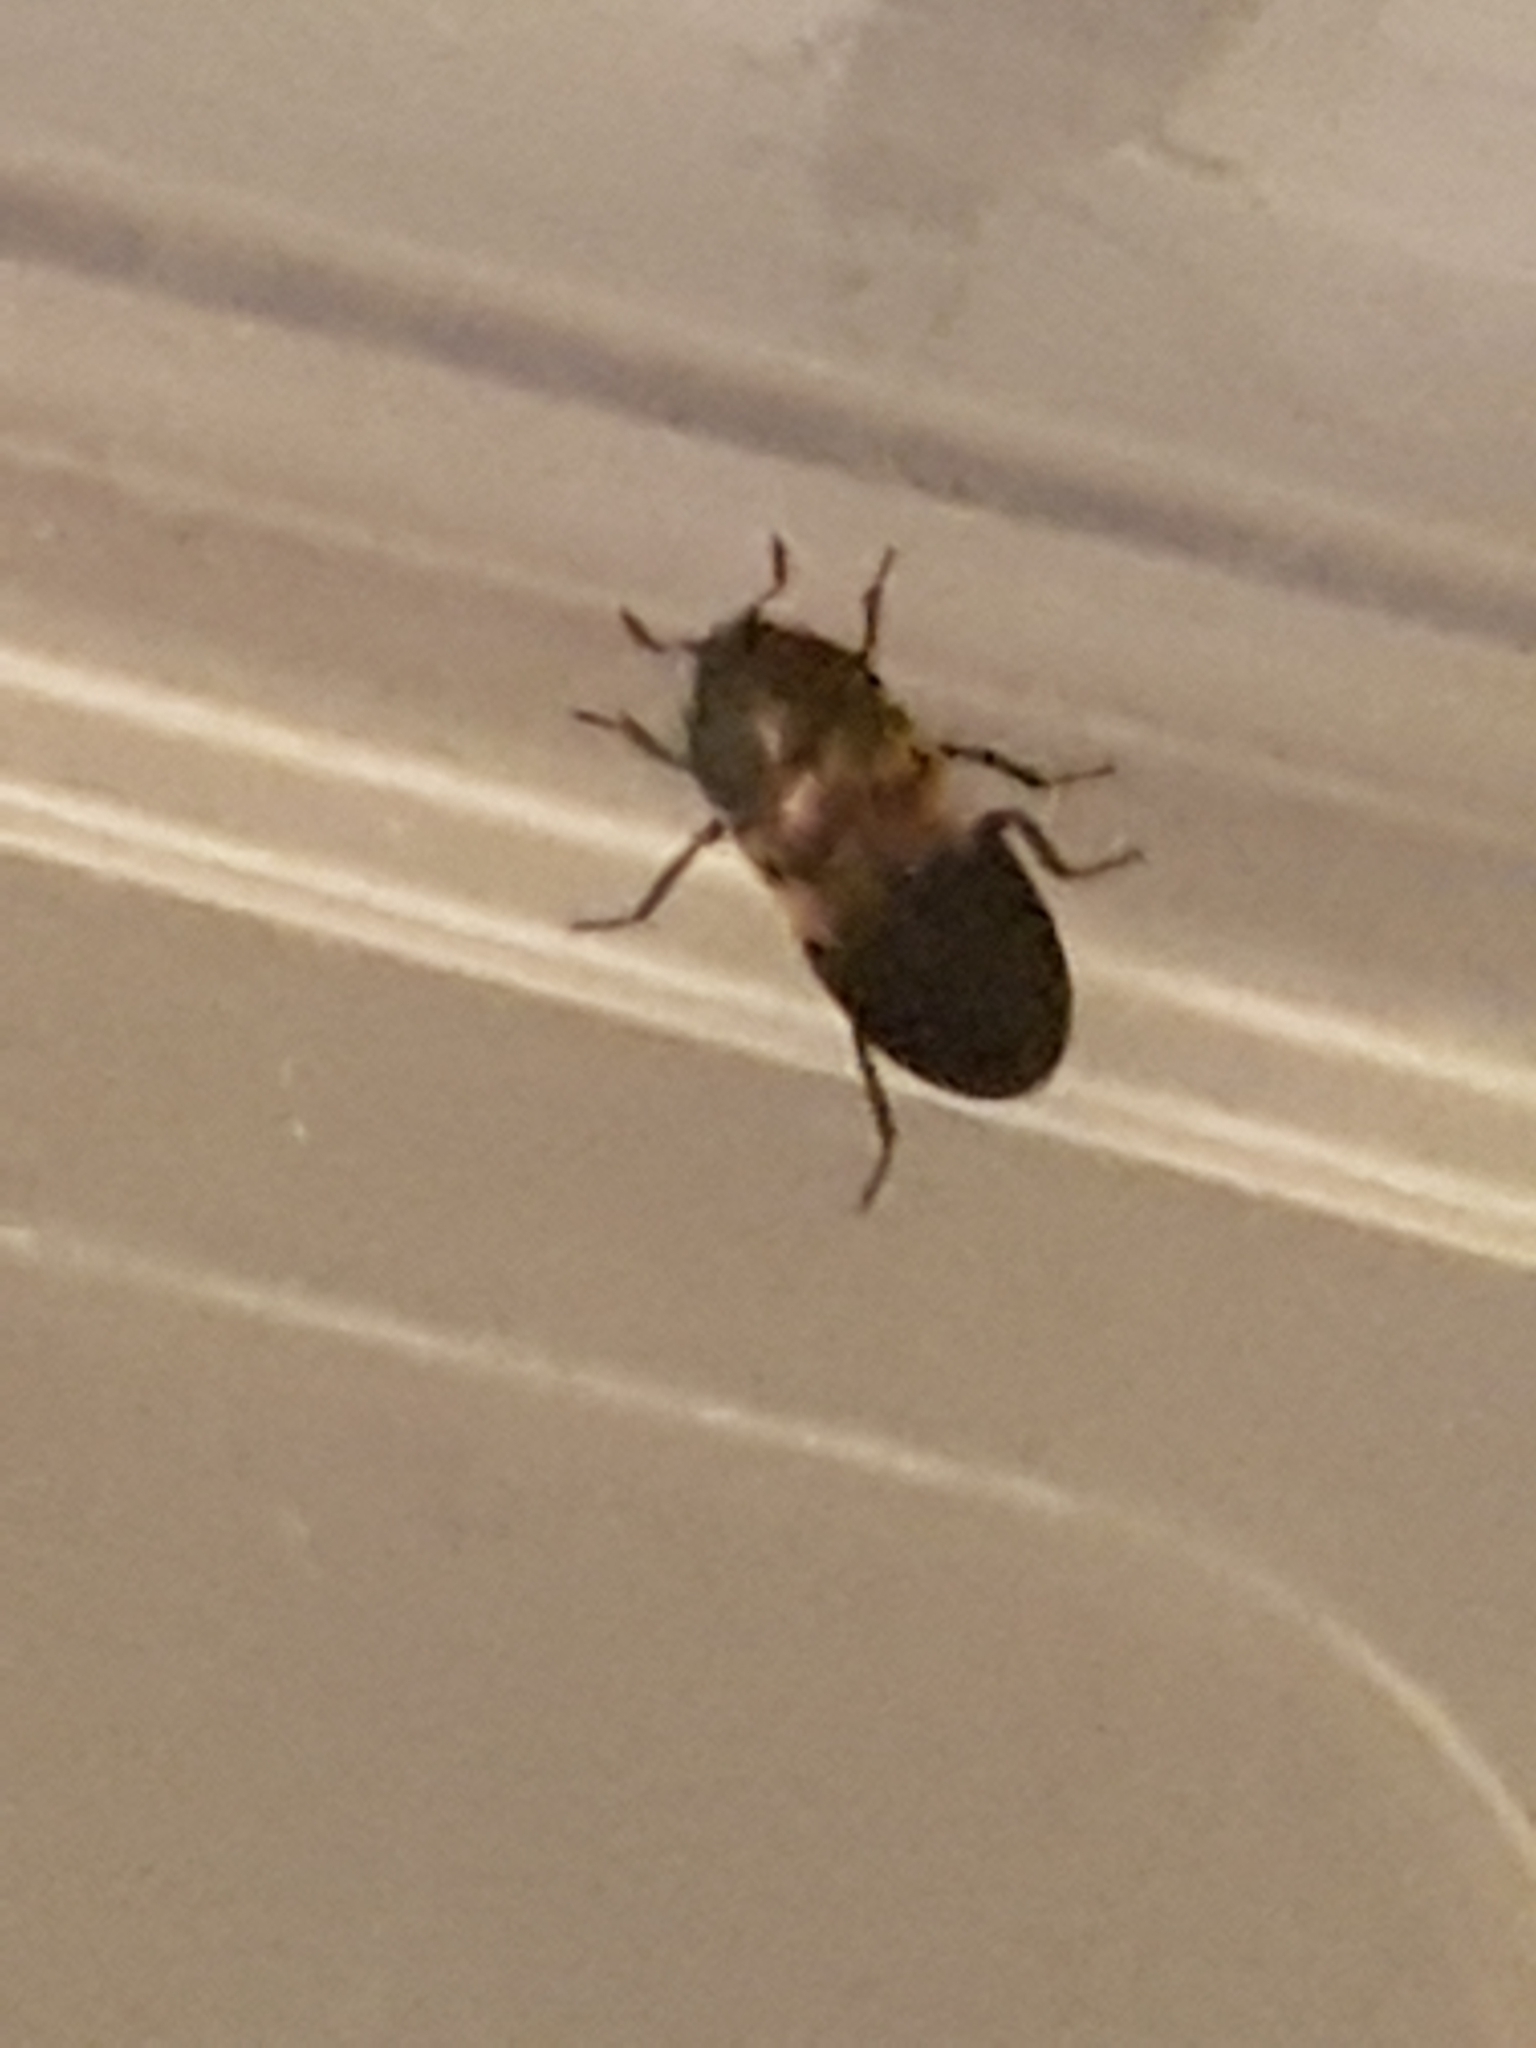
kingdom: Animalia
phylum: Arthropoda
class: Insecta
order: Coleoptera
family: Dermestidae
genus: Dermestes
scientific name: Dermestes lardarius
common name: Larder beetle
